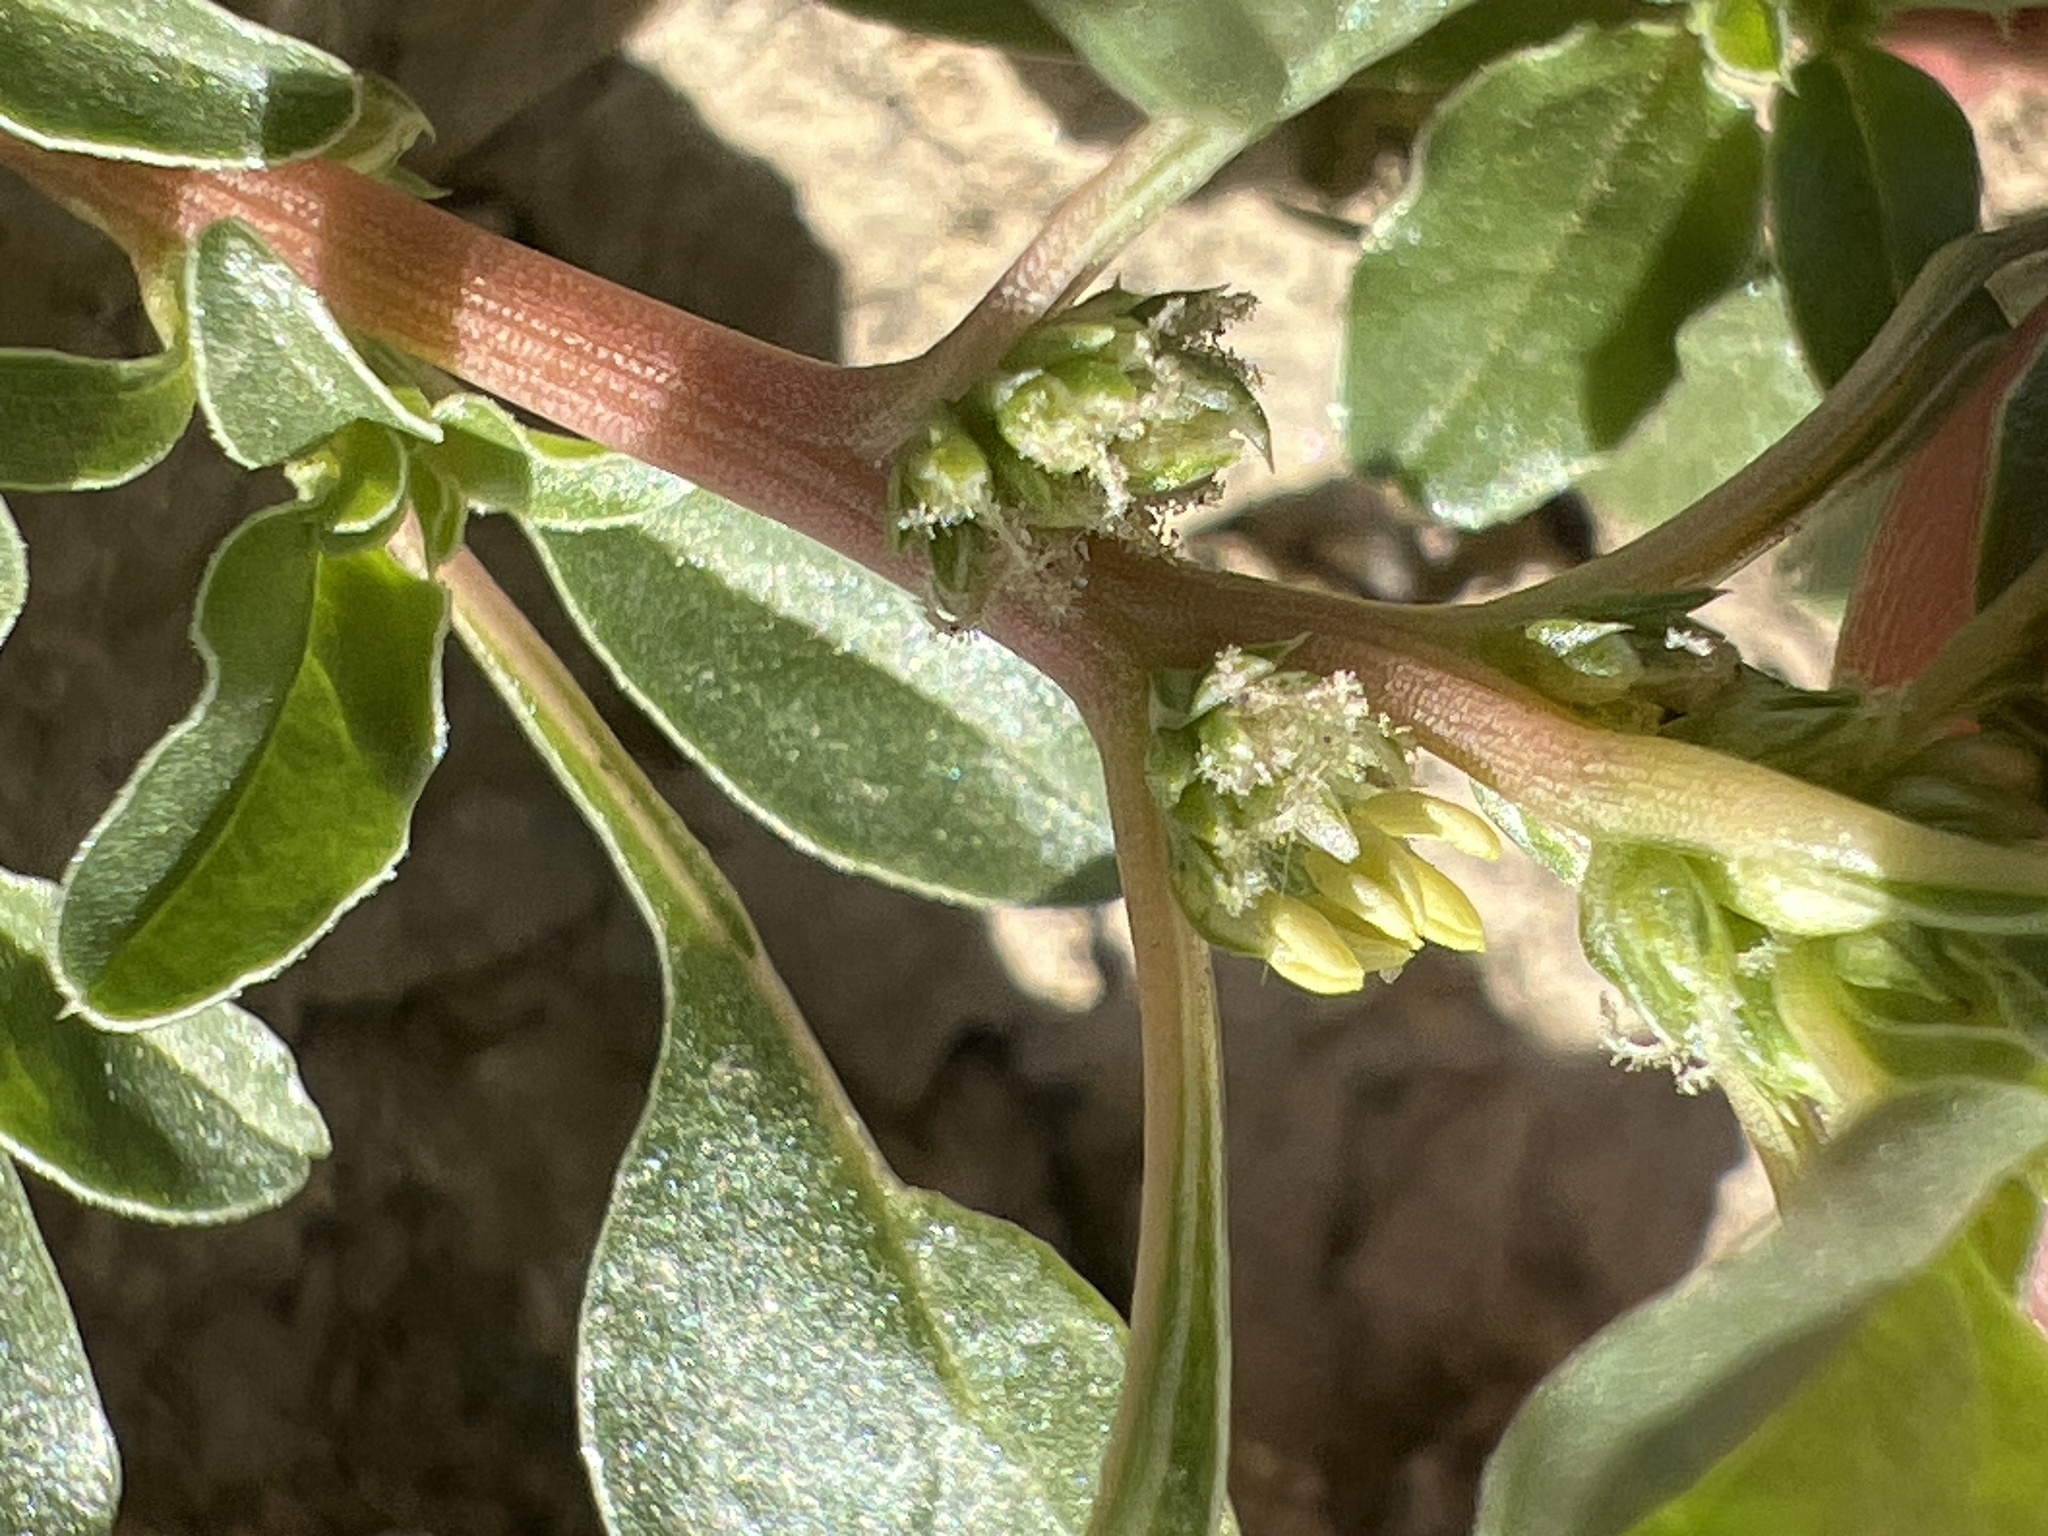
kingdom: Plantae
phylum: Tracheophyta
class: Magnoliopsida
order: Caryophyllales
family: Amaranthaceae
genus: Amaranthus
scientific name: Amaranthus blitoides
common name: Prostrate pigweed
